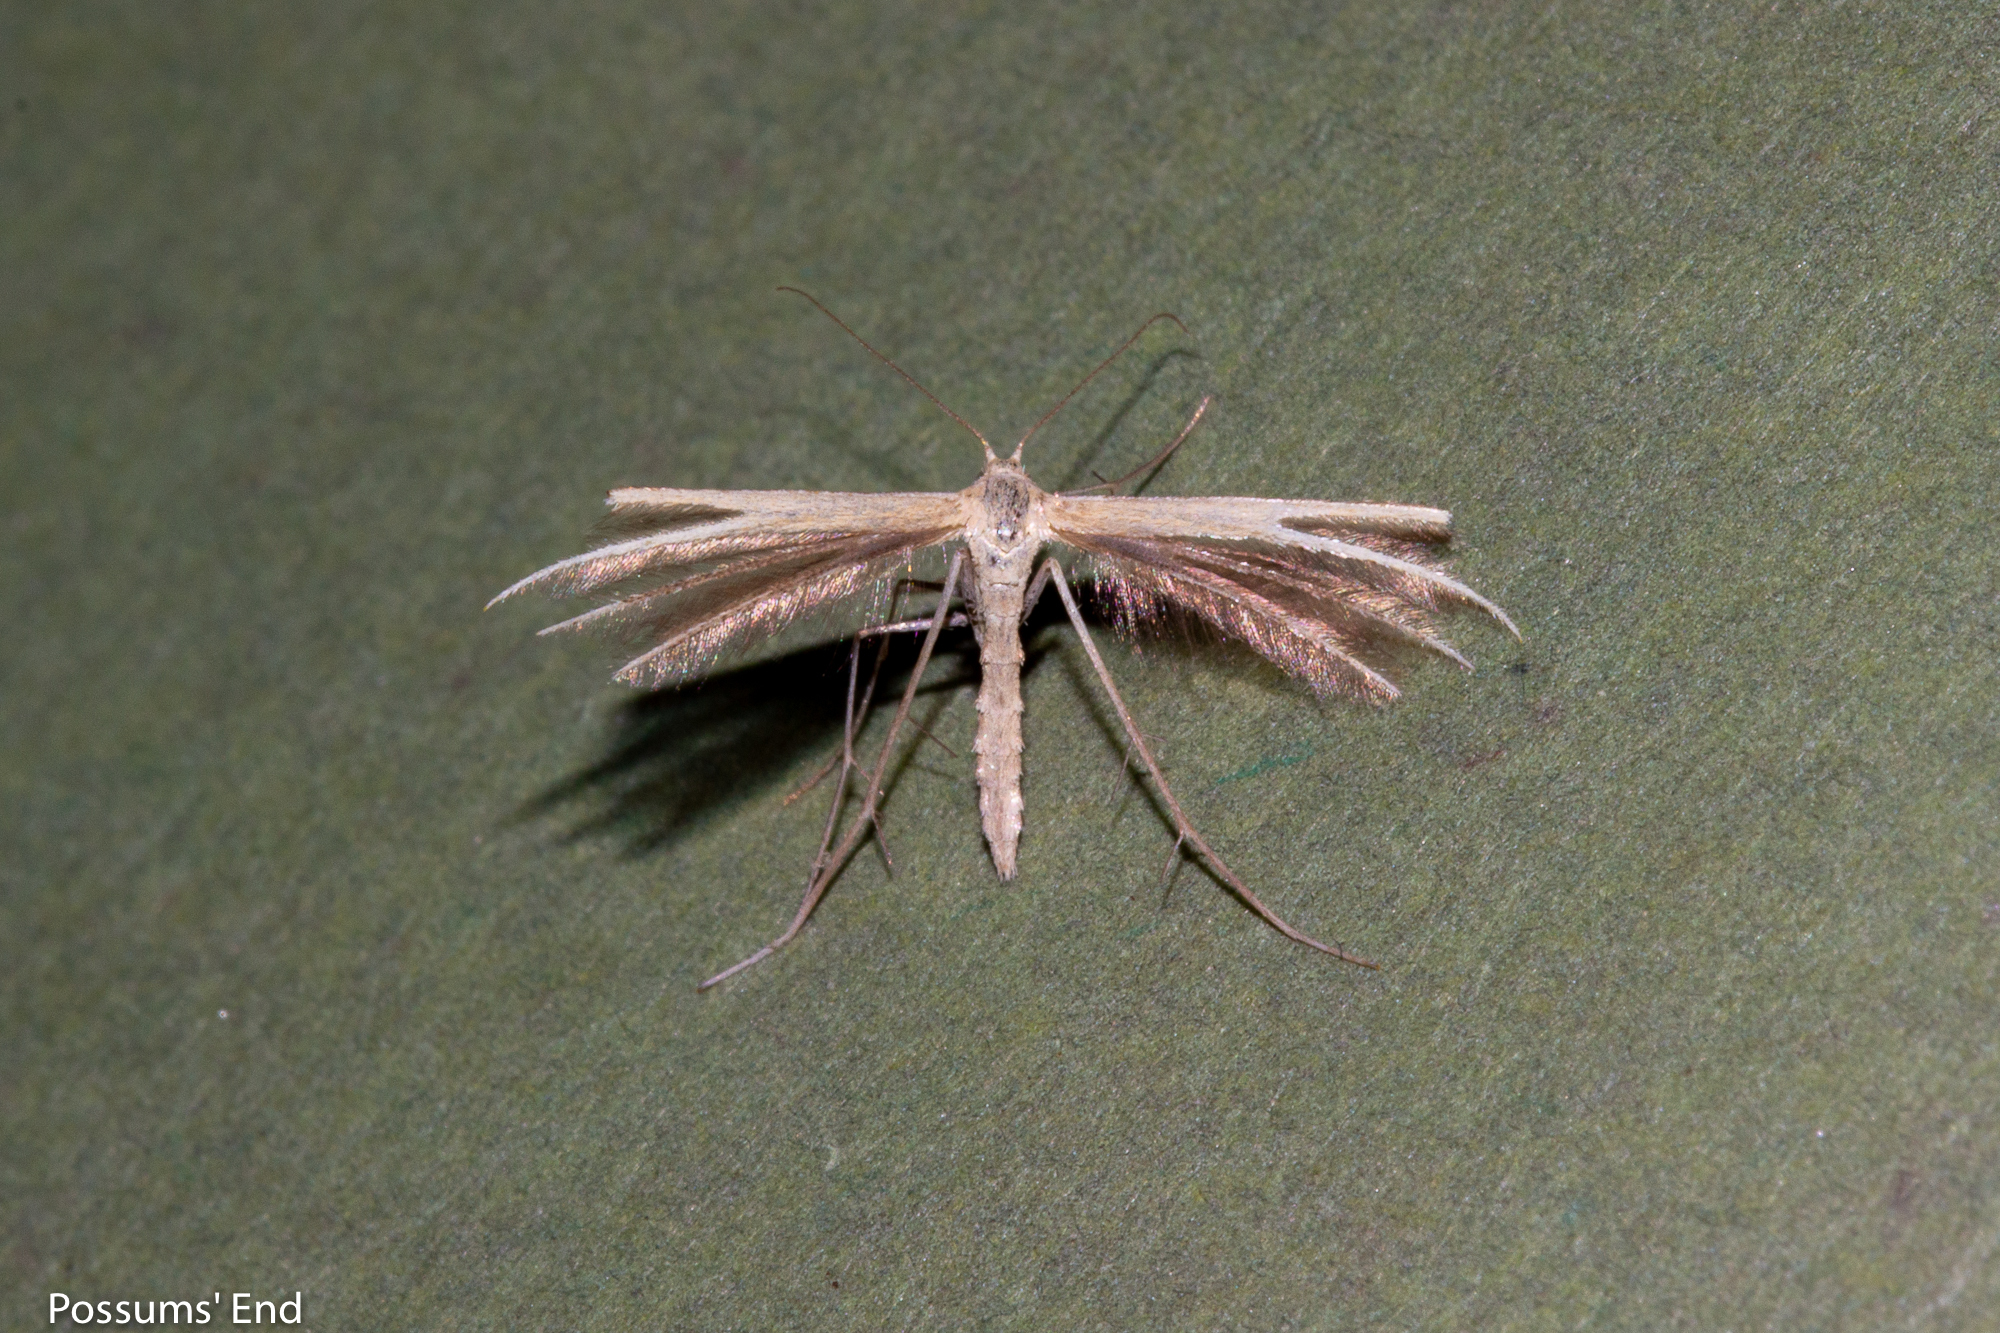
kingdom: Animalia
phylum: Arthropoda
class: Insecta
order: Lepidoptera
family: Pterophoridae
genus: Pterophorus
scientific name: Pterophorus innotatalis
